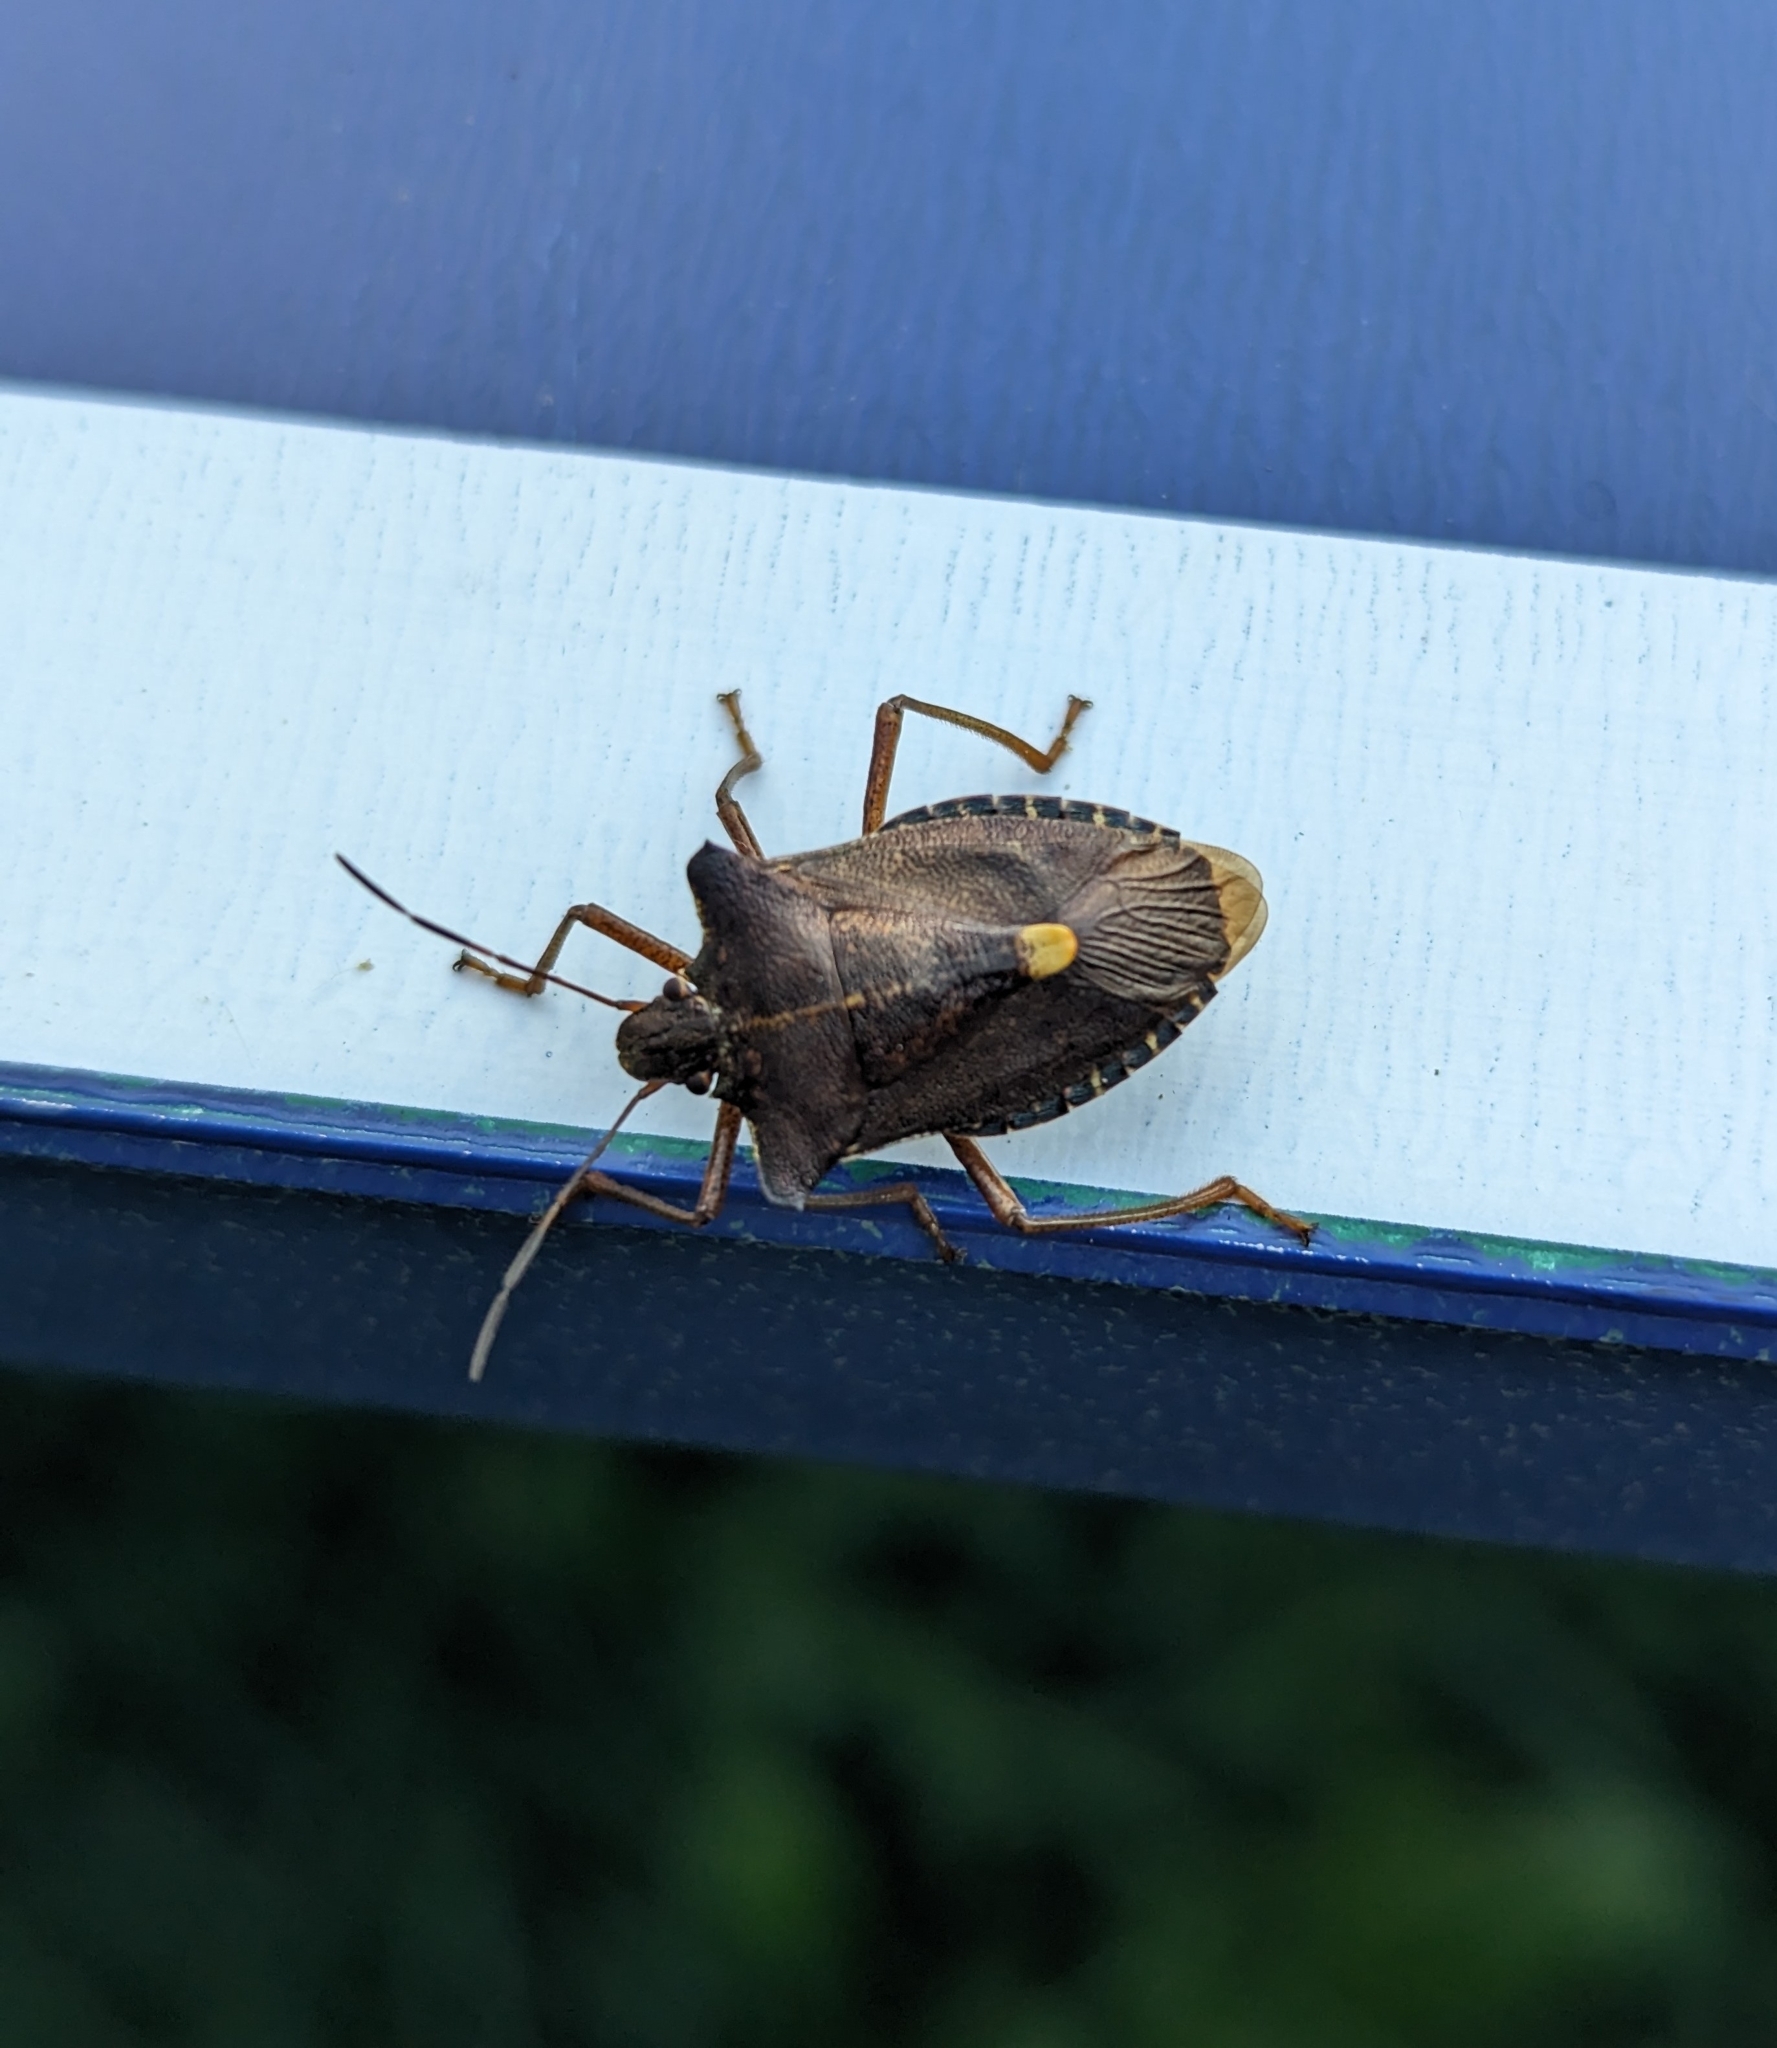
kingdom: Animalia
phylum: Arthropoda
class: Insecta
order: Hemiptera
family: Pentatomidae
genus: Pentatoma
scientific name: Pentatoma rufipes
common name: Forest bug
